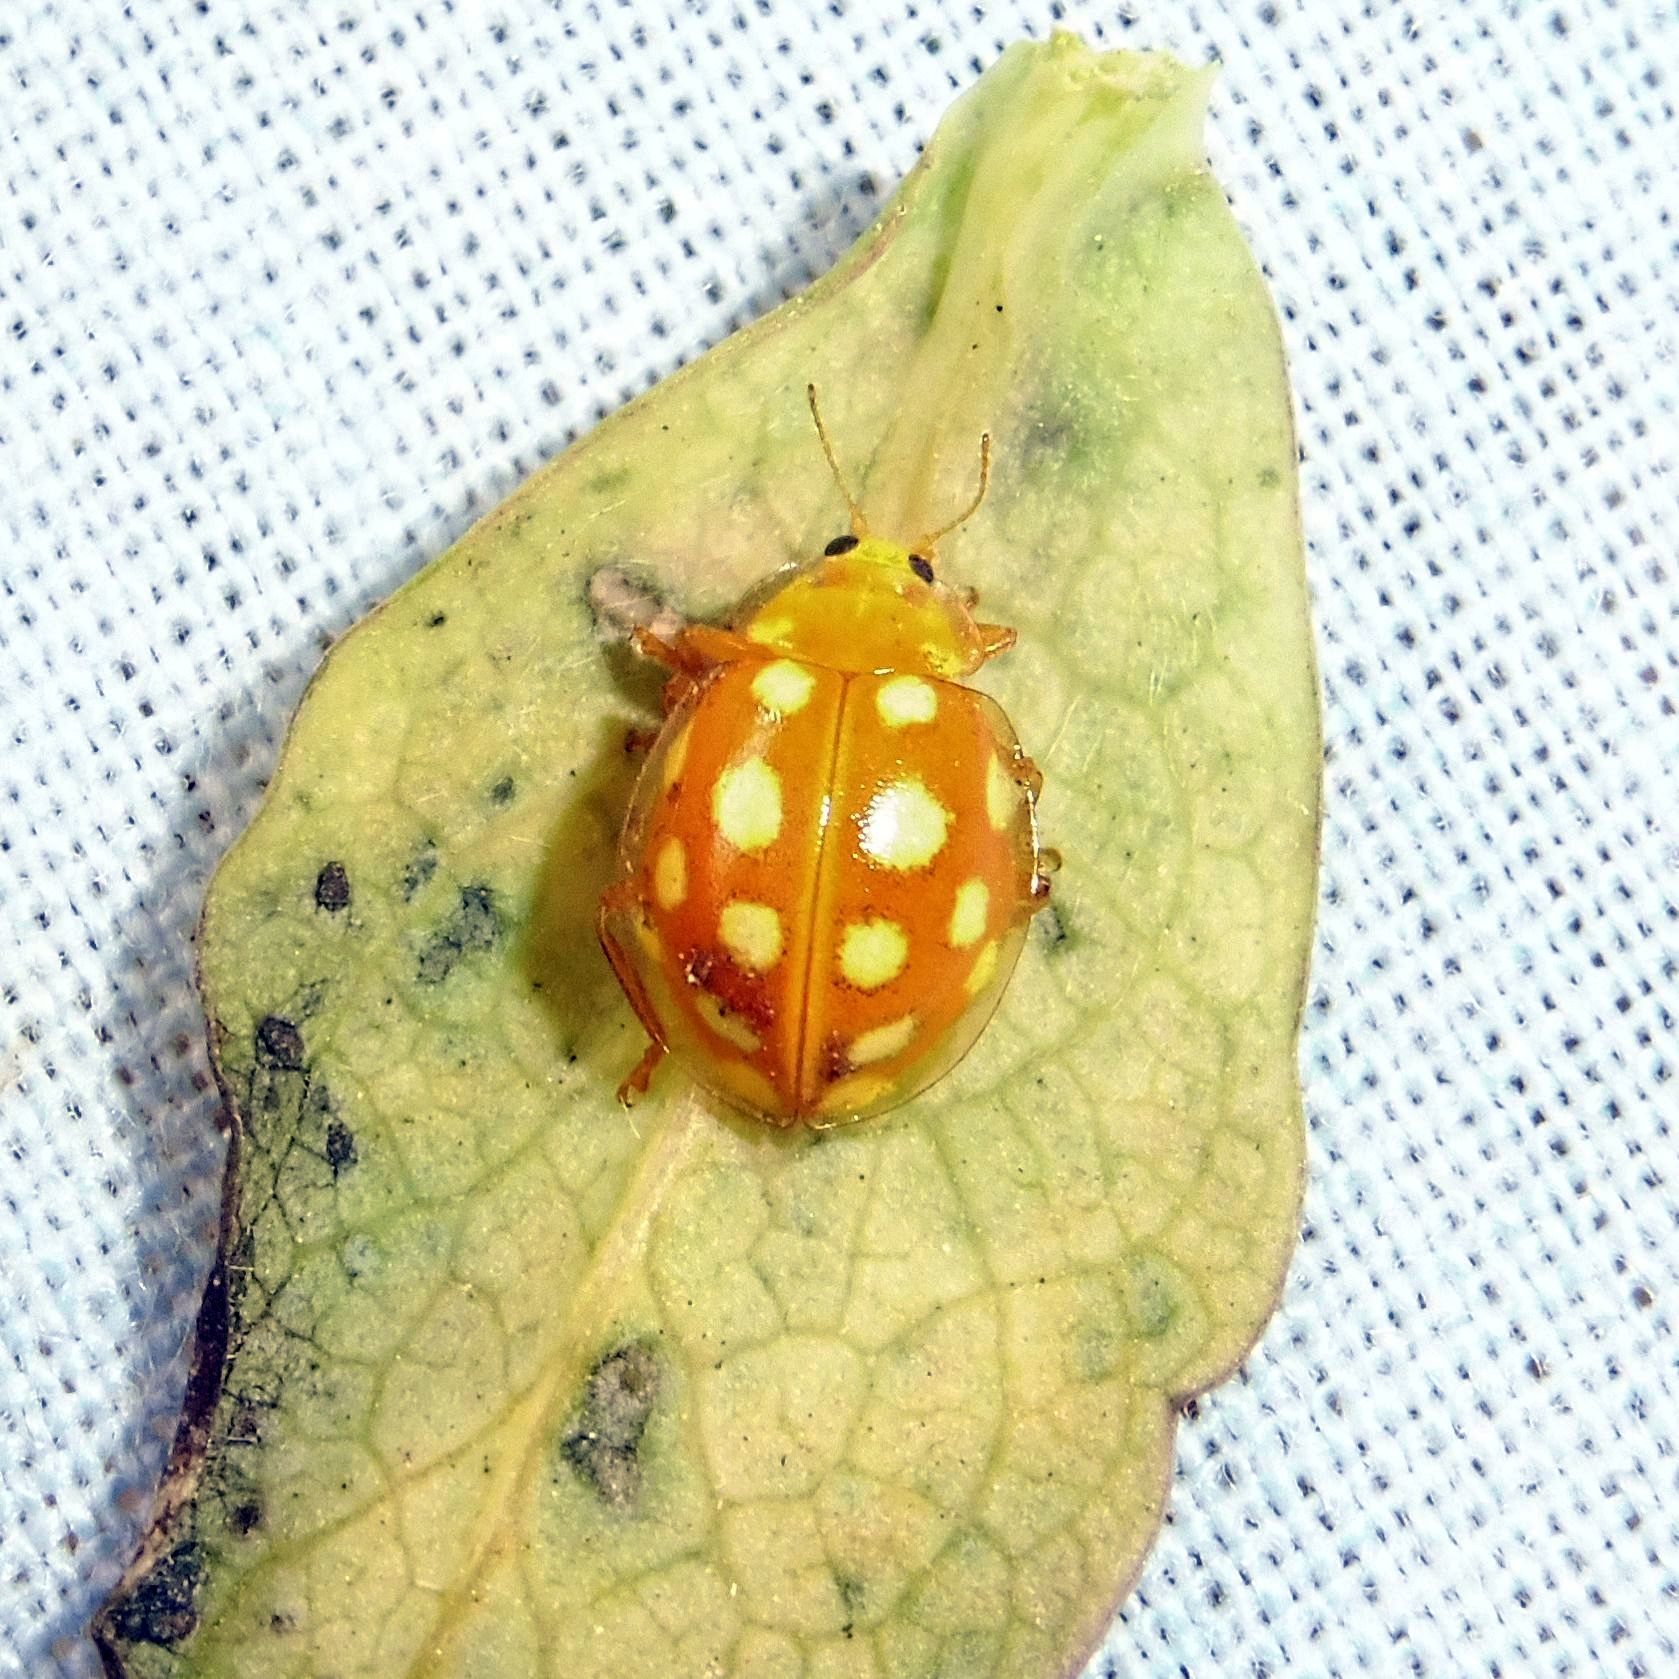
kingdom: Animalia
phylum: Arthropoda
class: Insecta
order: Coleoptera
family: Coccinellidae
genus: Halyzia
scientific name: Halyzia sedecimguttata
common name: Orange ladybird
